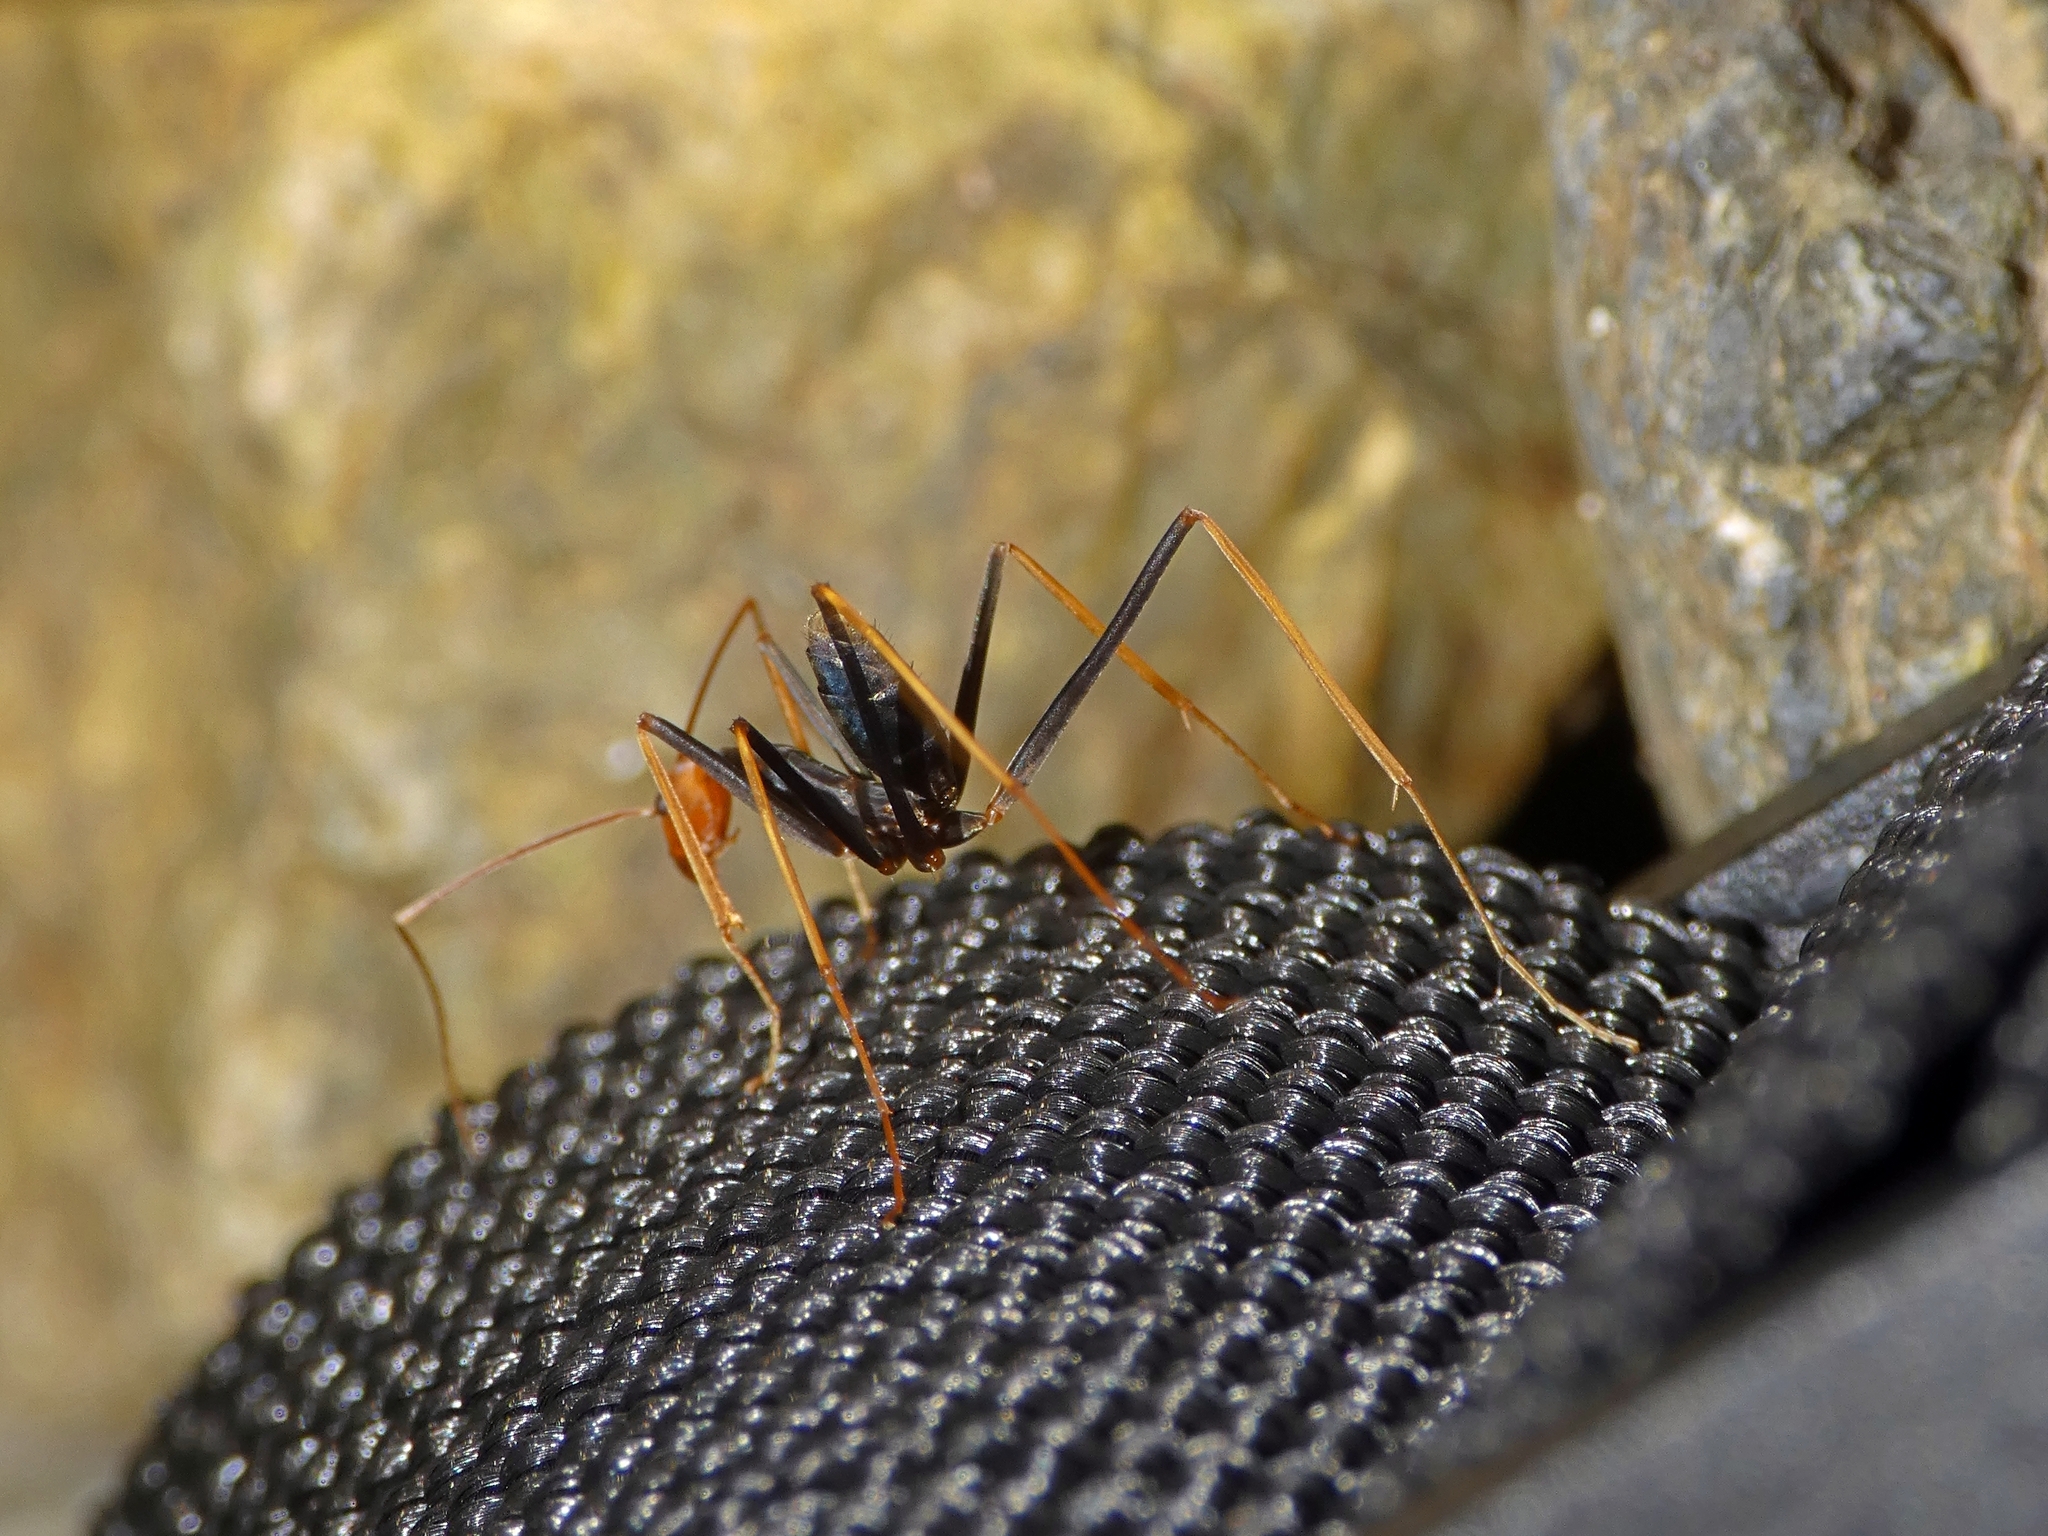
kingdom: Animalia
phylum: Arthropoda
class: Insecta
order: Hymenoptera
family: Formicidae
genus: Leptomyrmex
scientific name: Leptomyrmex ruficeps
